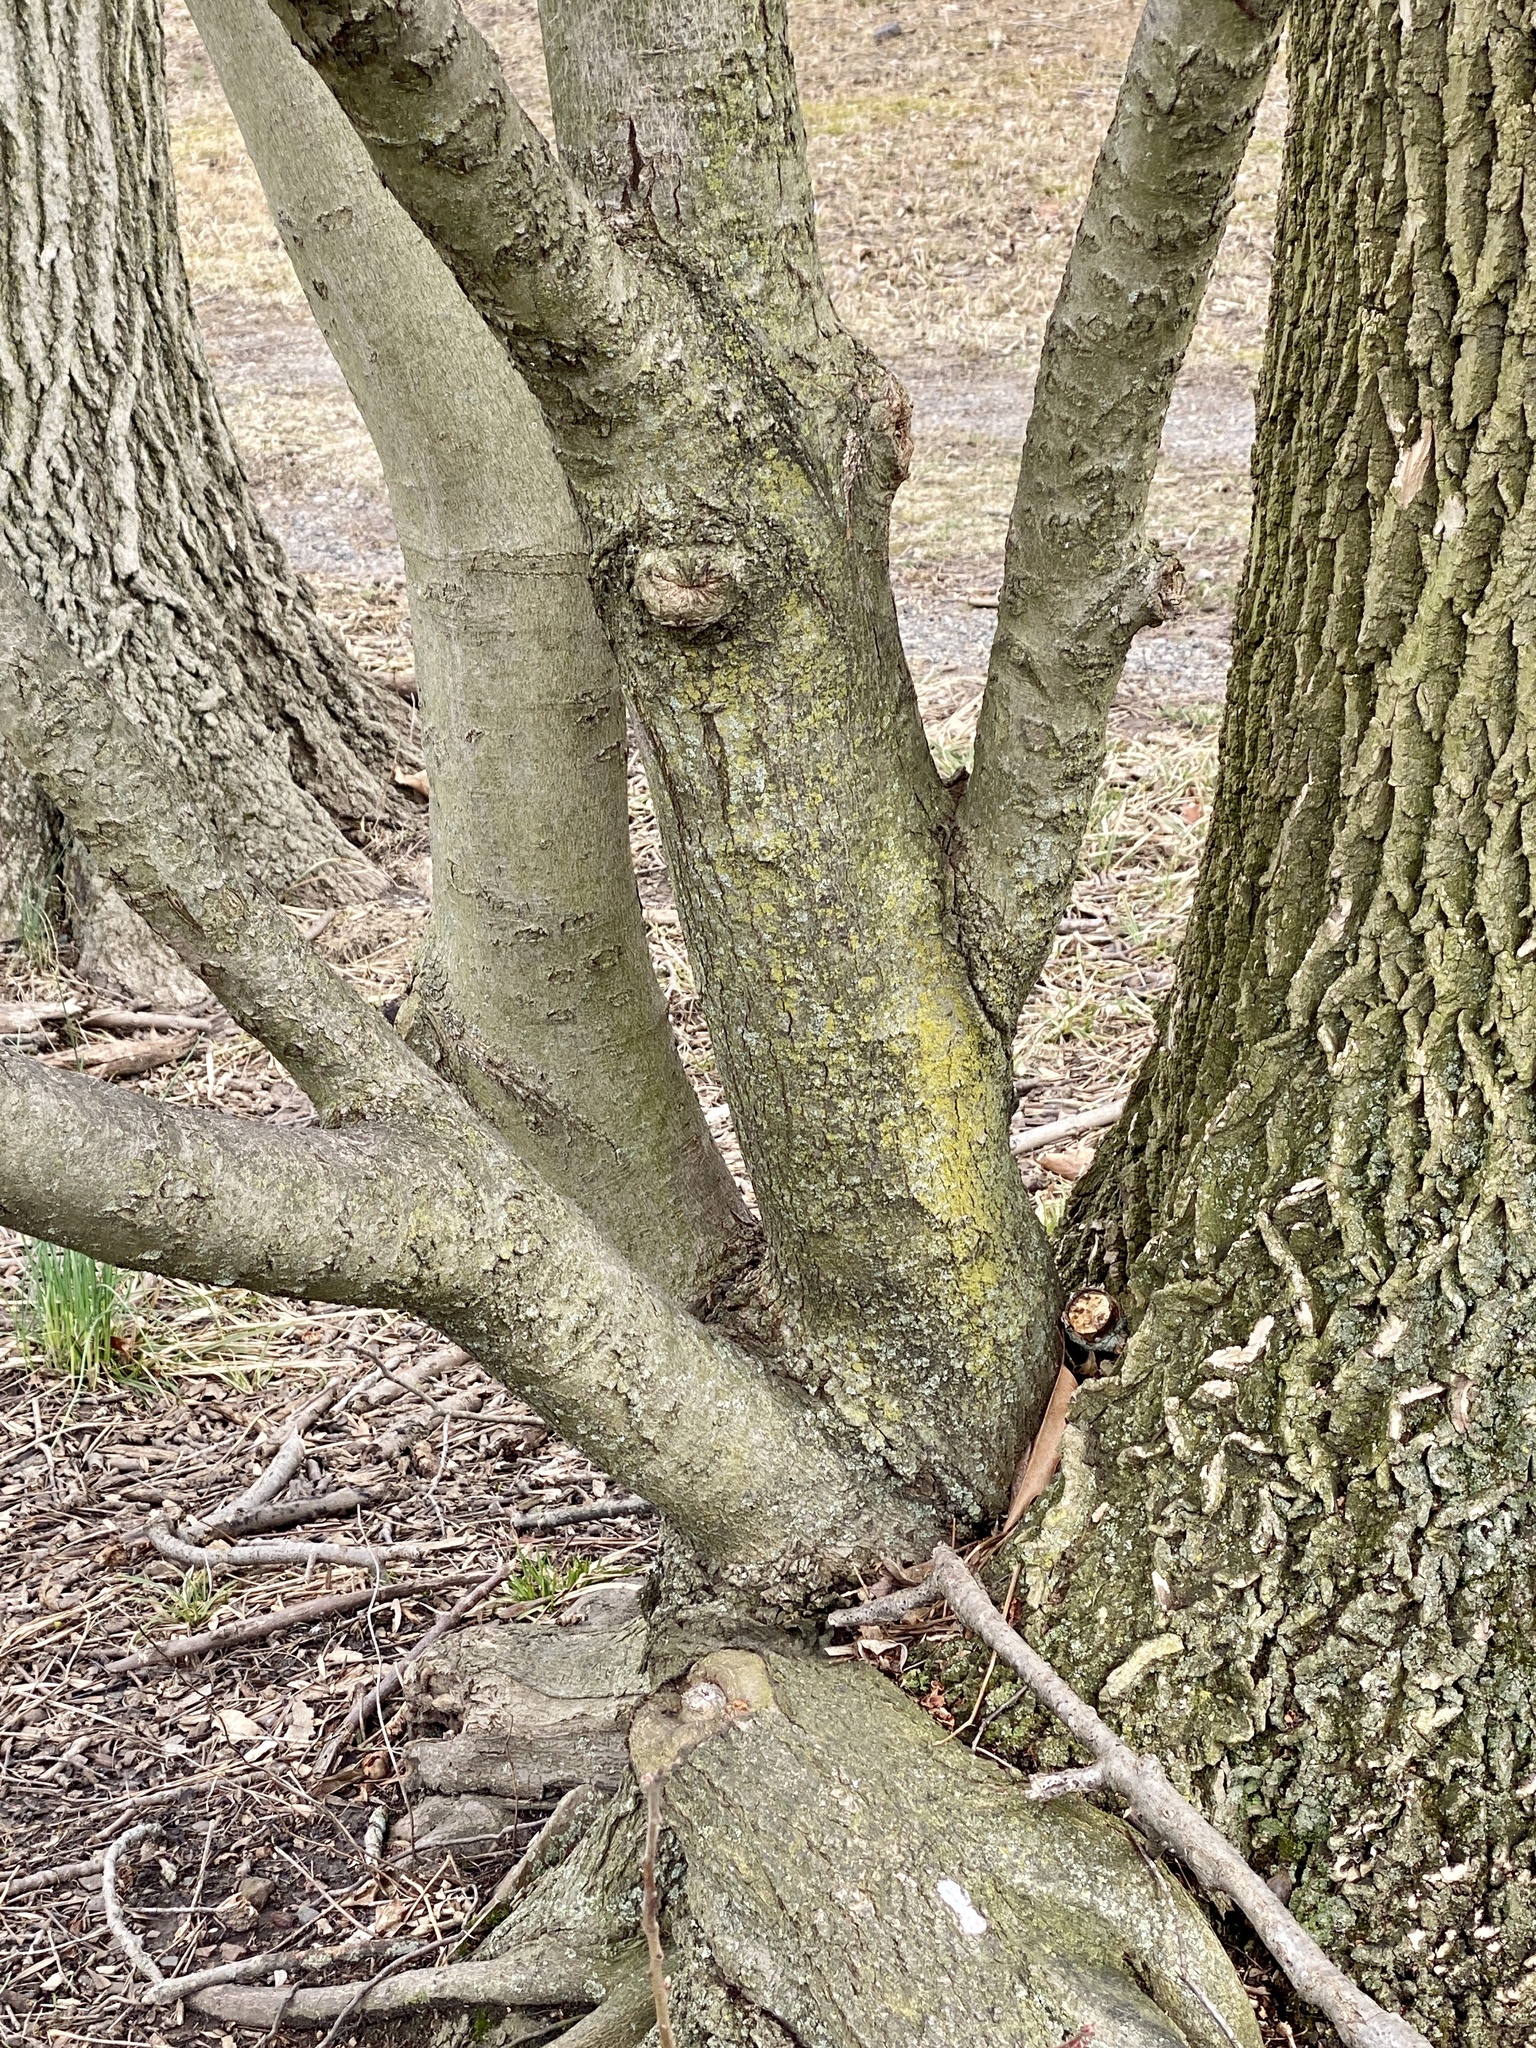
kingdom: Plantae
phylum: Tracheophyta
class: Magnoliopsida
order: Sapindales
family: Sapindaceae
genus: Acer
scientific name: Acer rubrum
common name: Red maple
